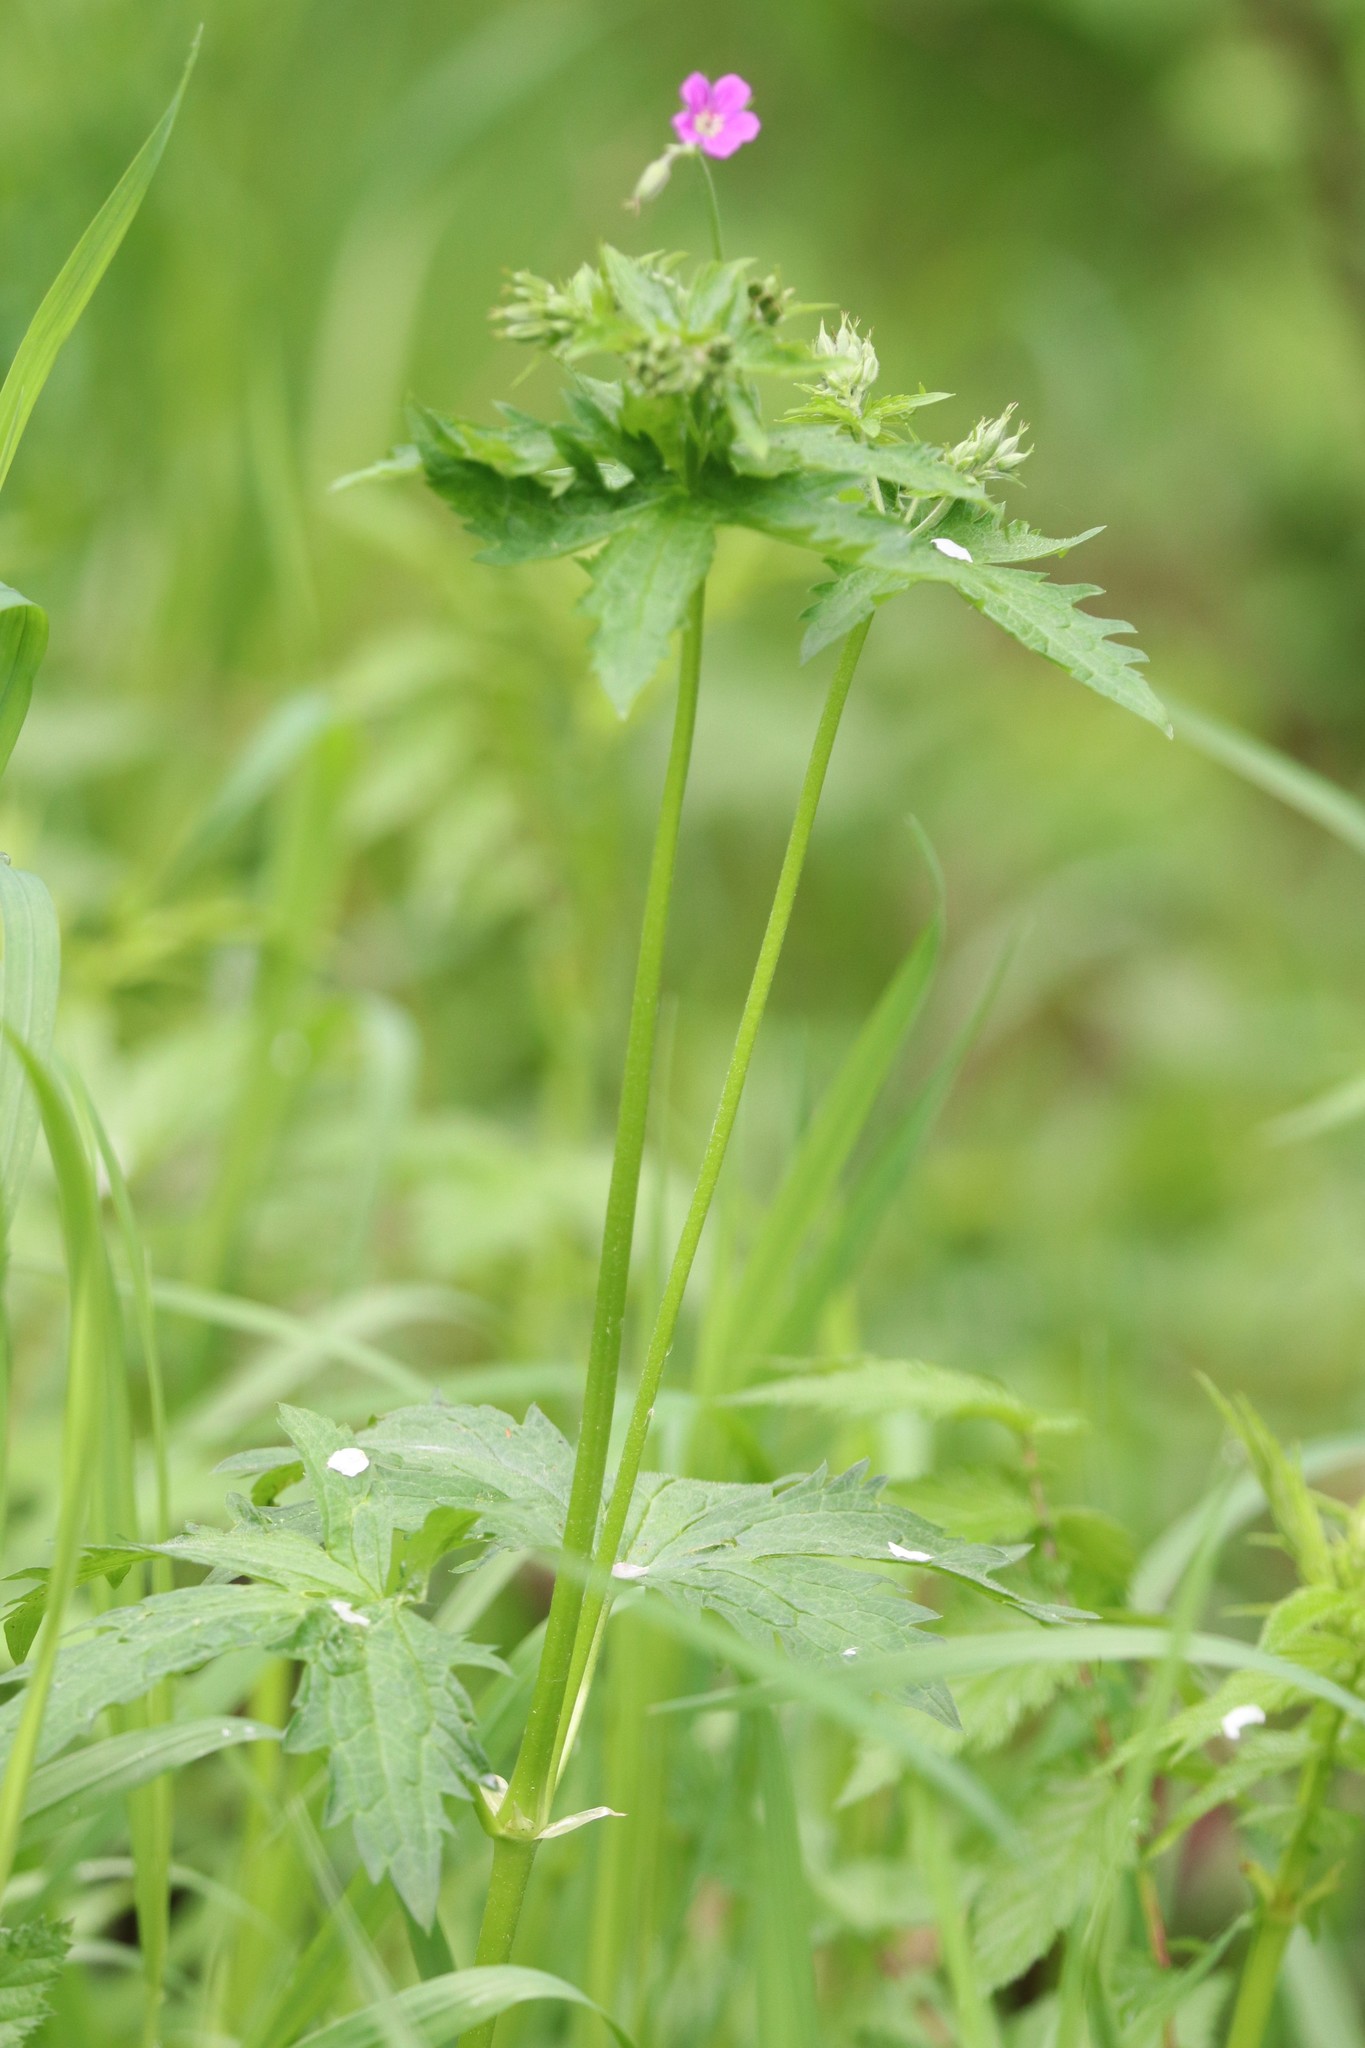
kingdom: Plantae
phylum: Tracheophyta
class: Magnoliopsida
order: Geraniales
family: Geraniaceae
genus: Geranium
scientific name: Geranium sylvaticum
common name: Wood crane's-bill
